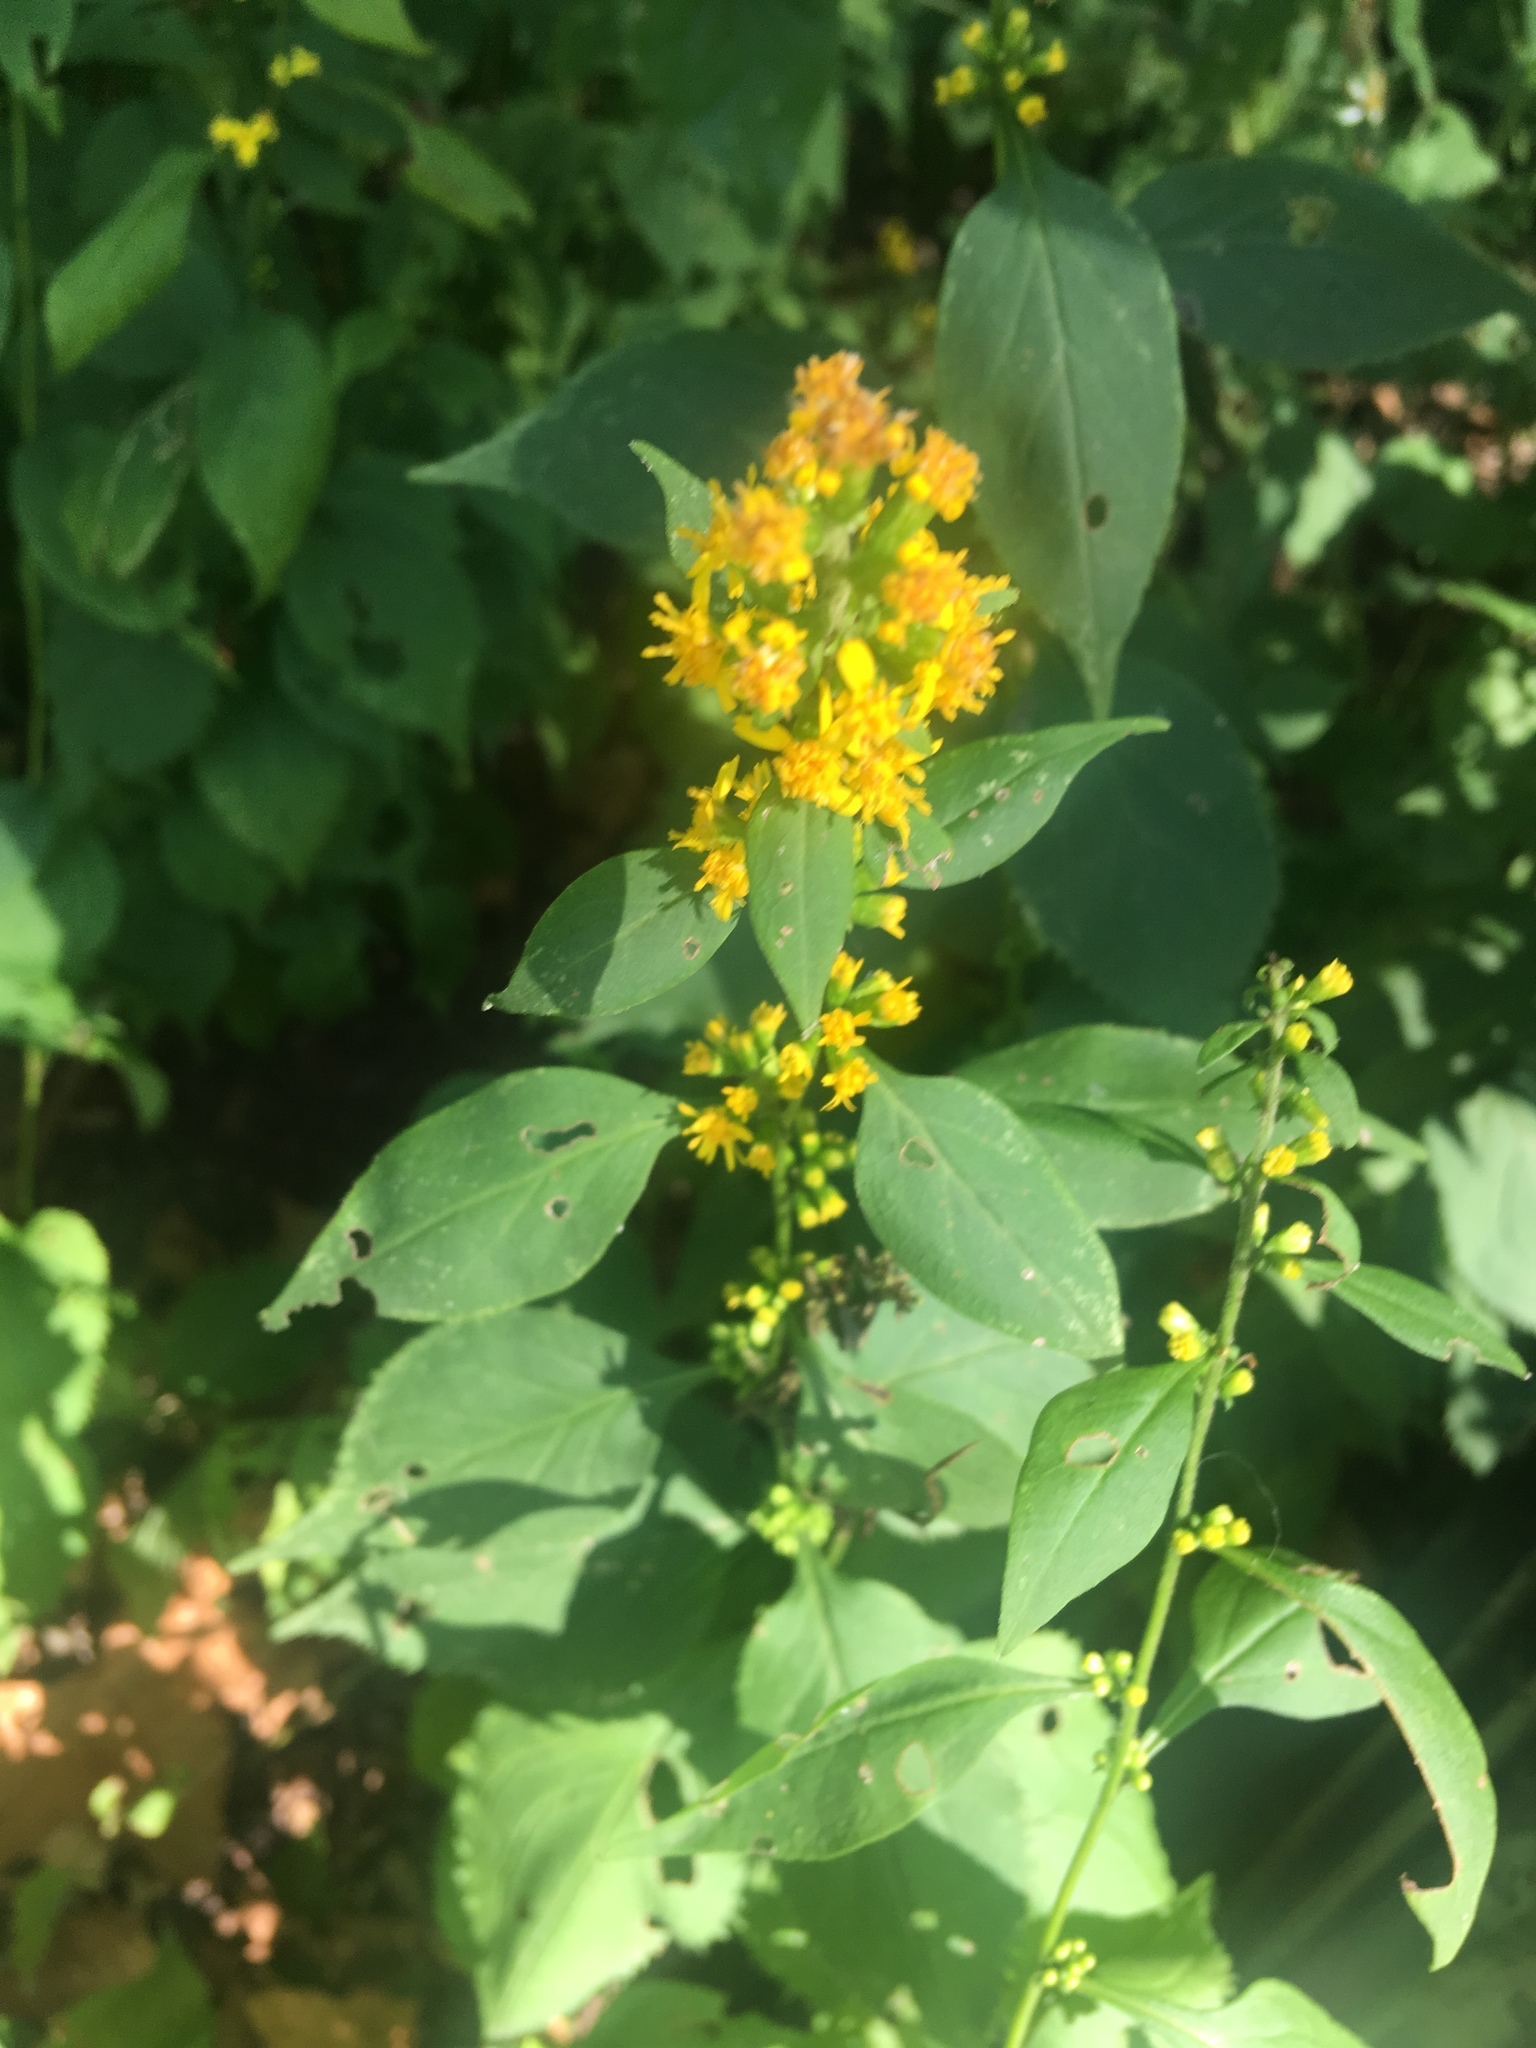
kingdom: Plantae
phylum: Tracheophyta
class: Magnoliopsida
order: Asterales
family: Asteraceae
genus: Solidago
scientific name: Solidago flexicaulis
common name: Zig-zag goldenrod
